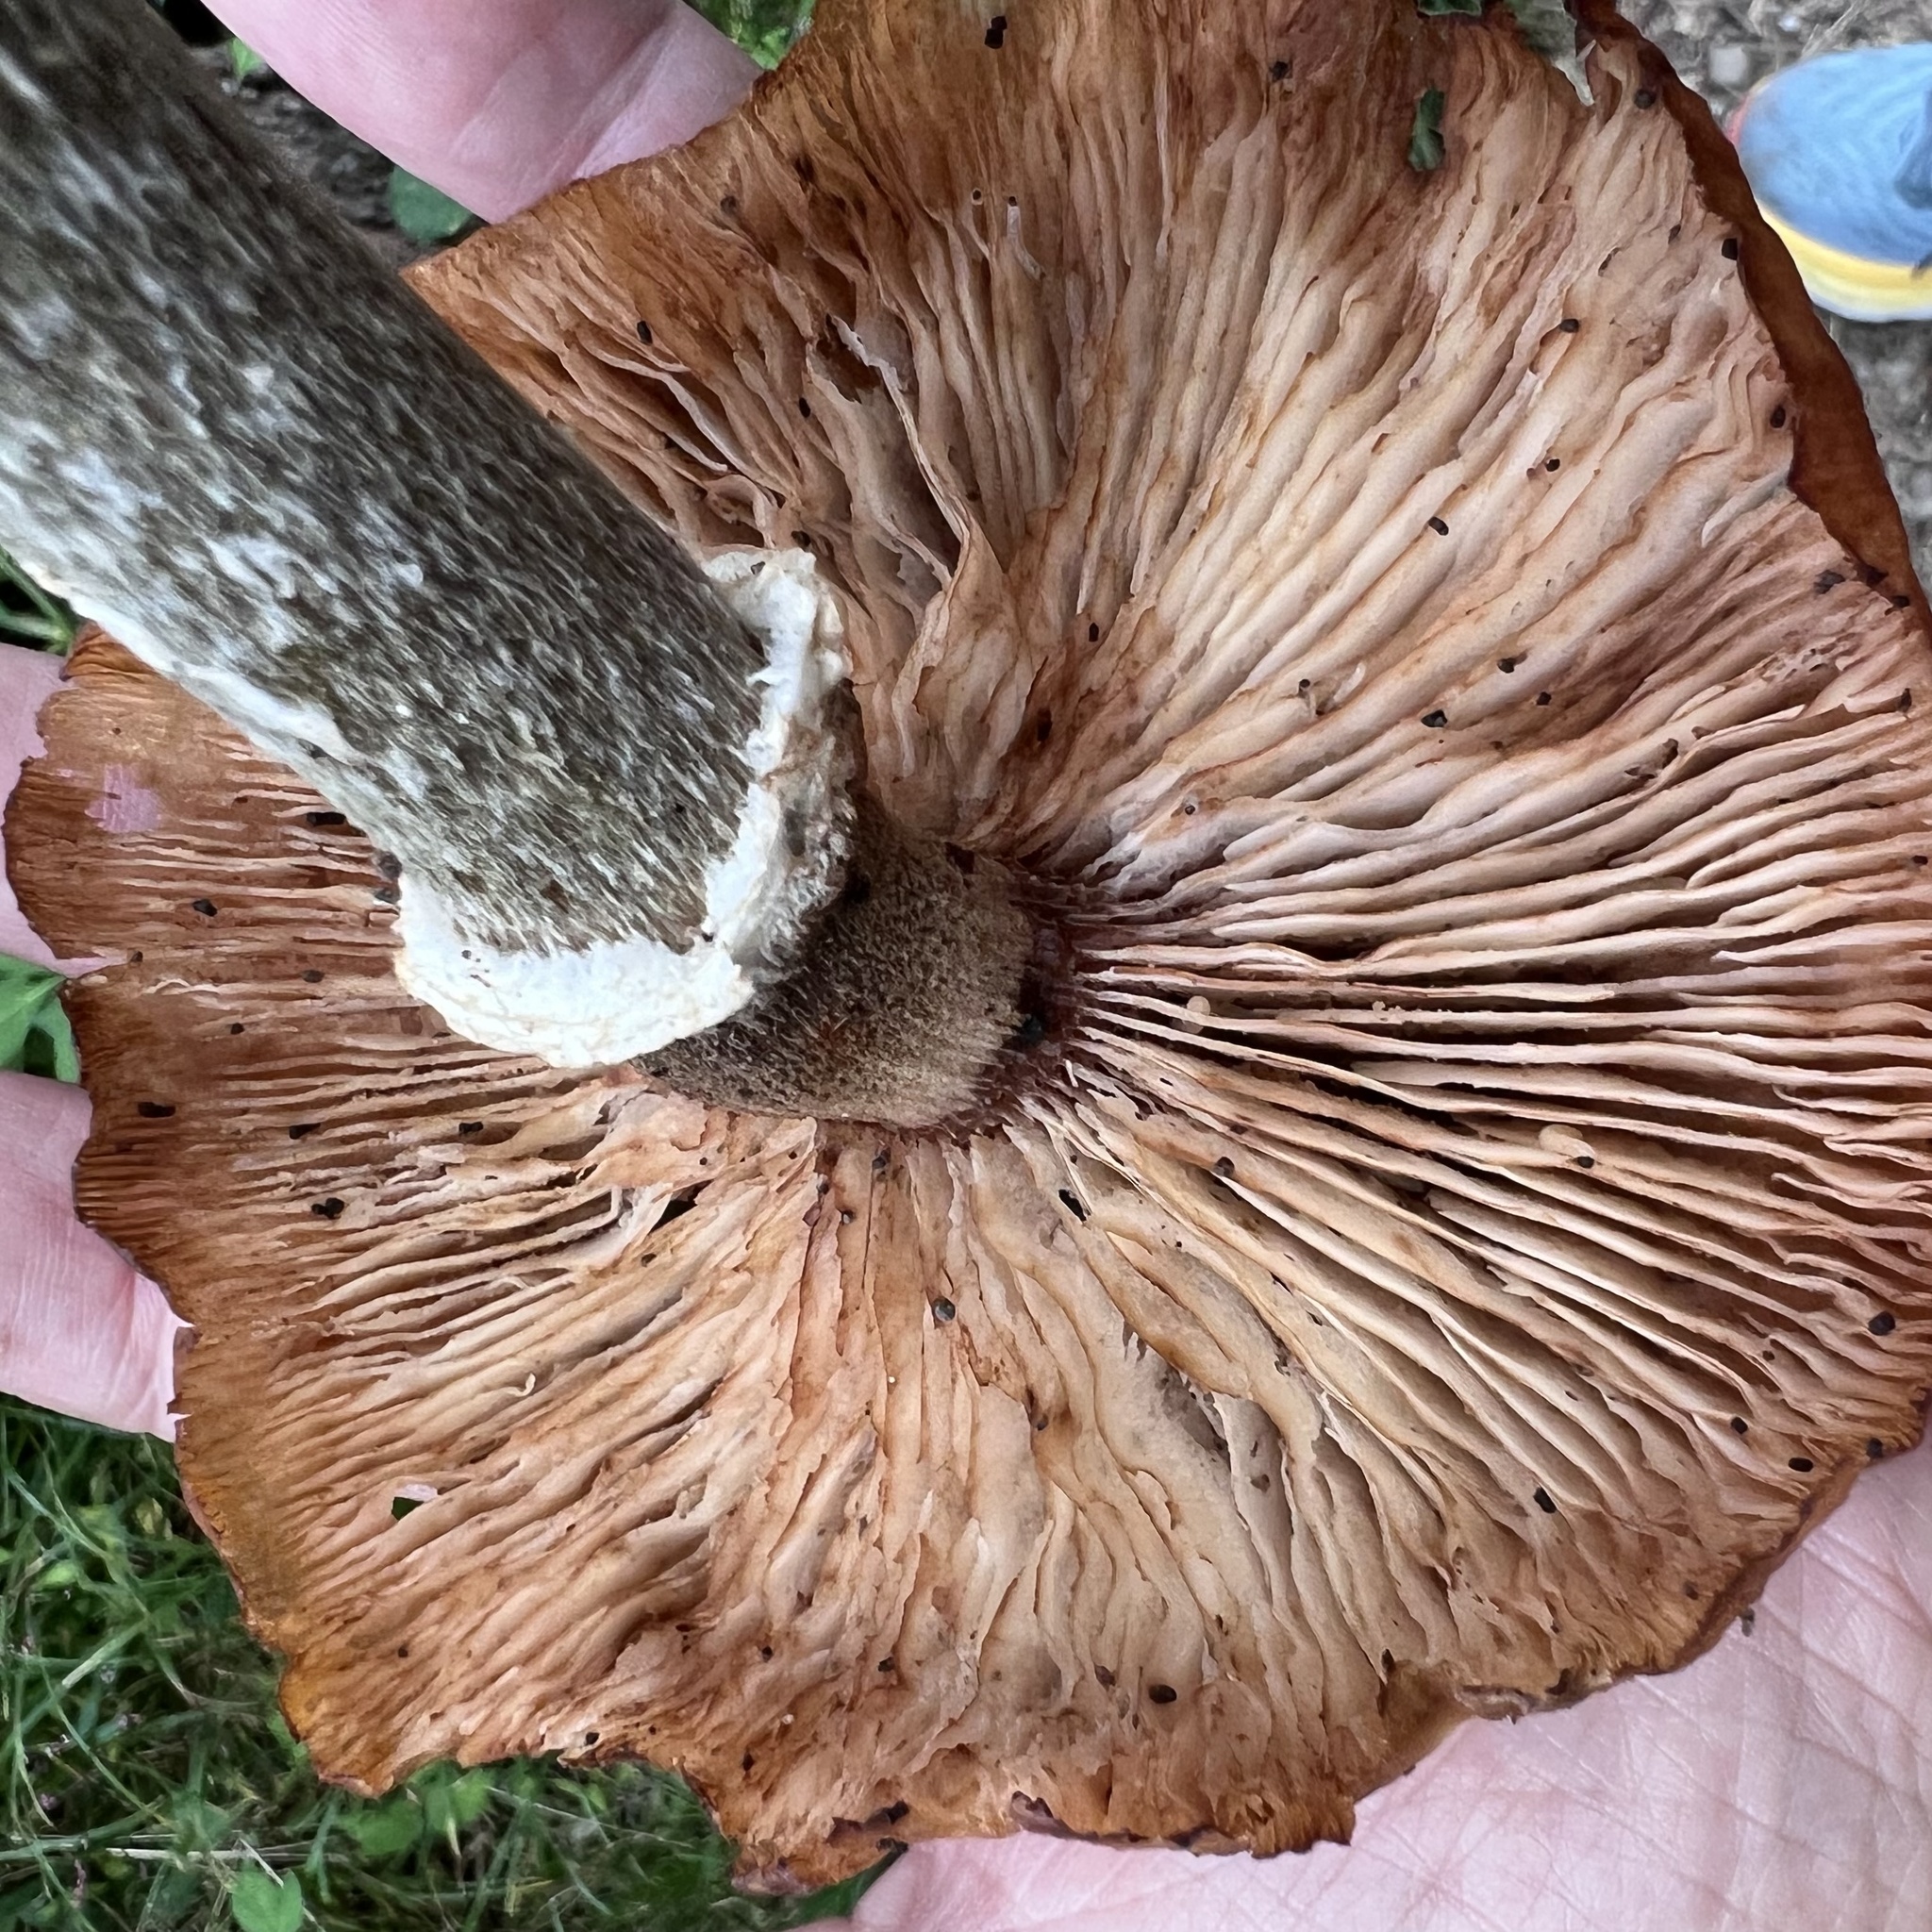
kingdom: Fungi
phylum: Basidiomycota
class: Agaricomycetes
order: Agaricales
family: Physalacriaceae
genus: Armillaria
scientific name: Armillaria mellea
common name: Honey fungus
